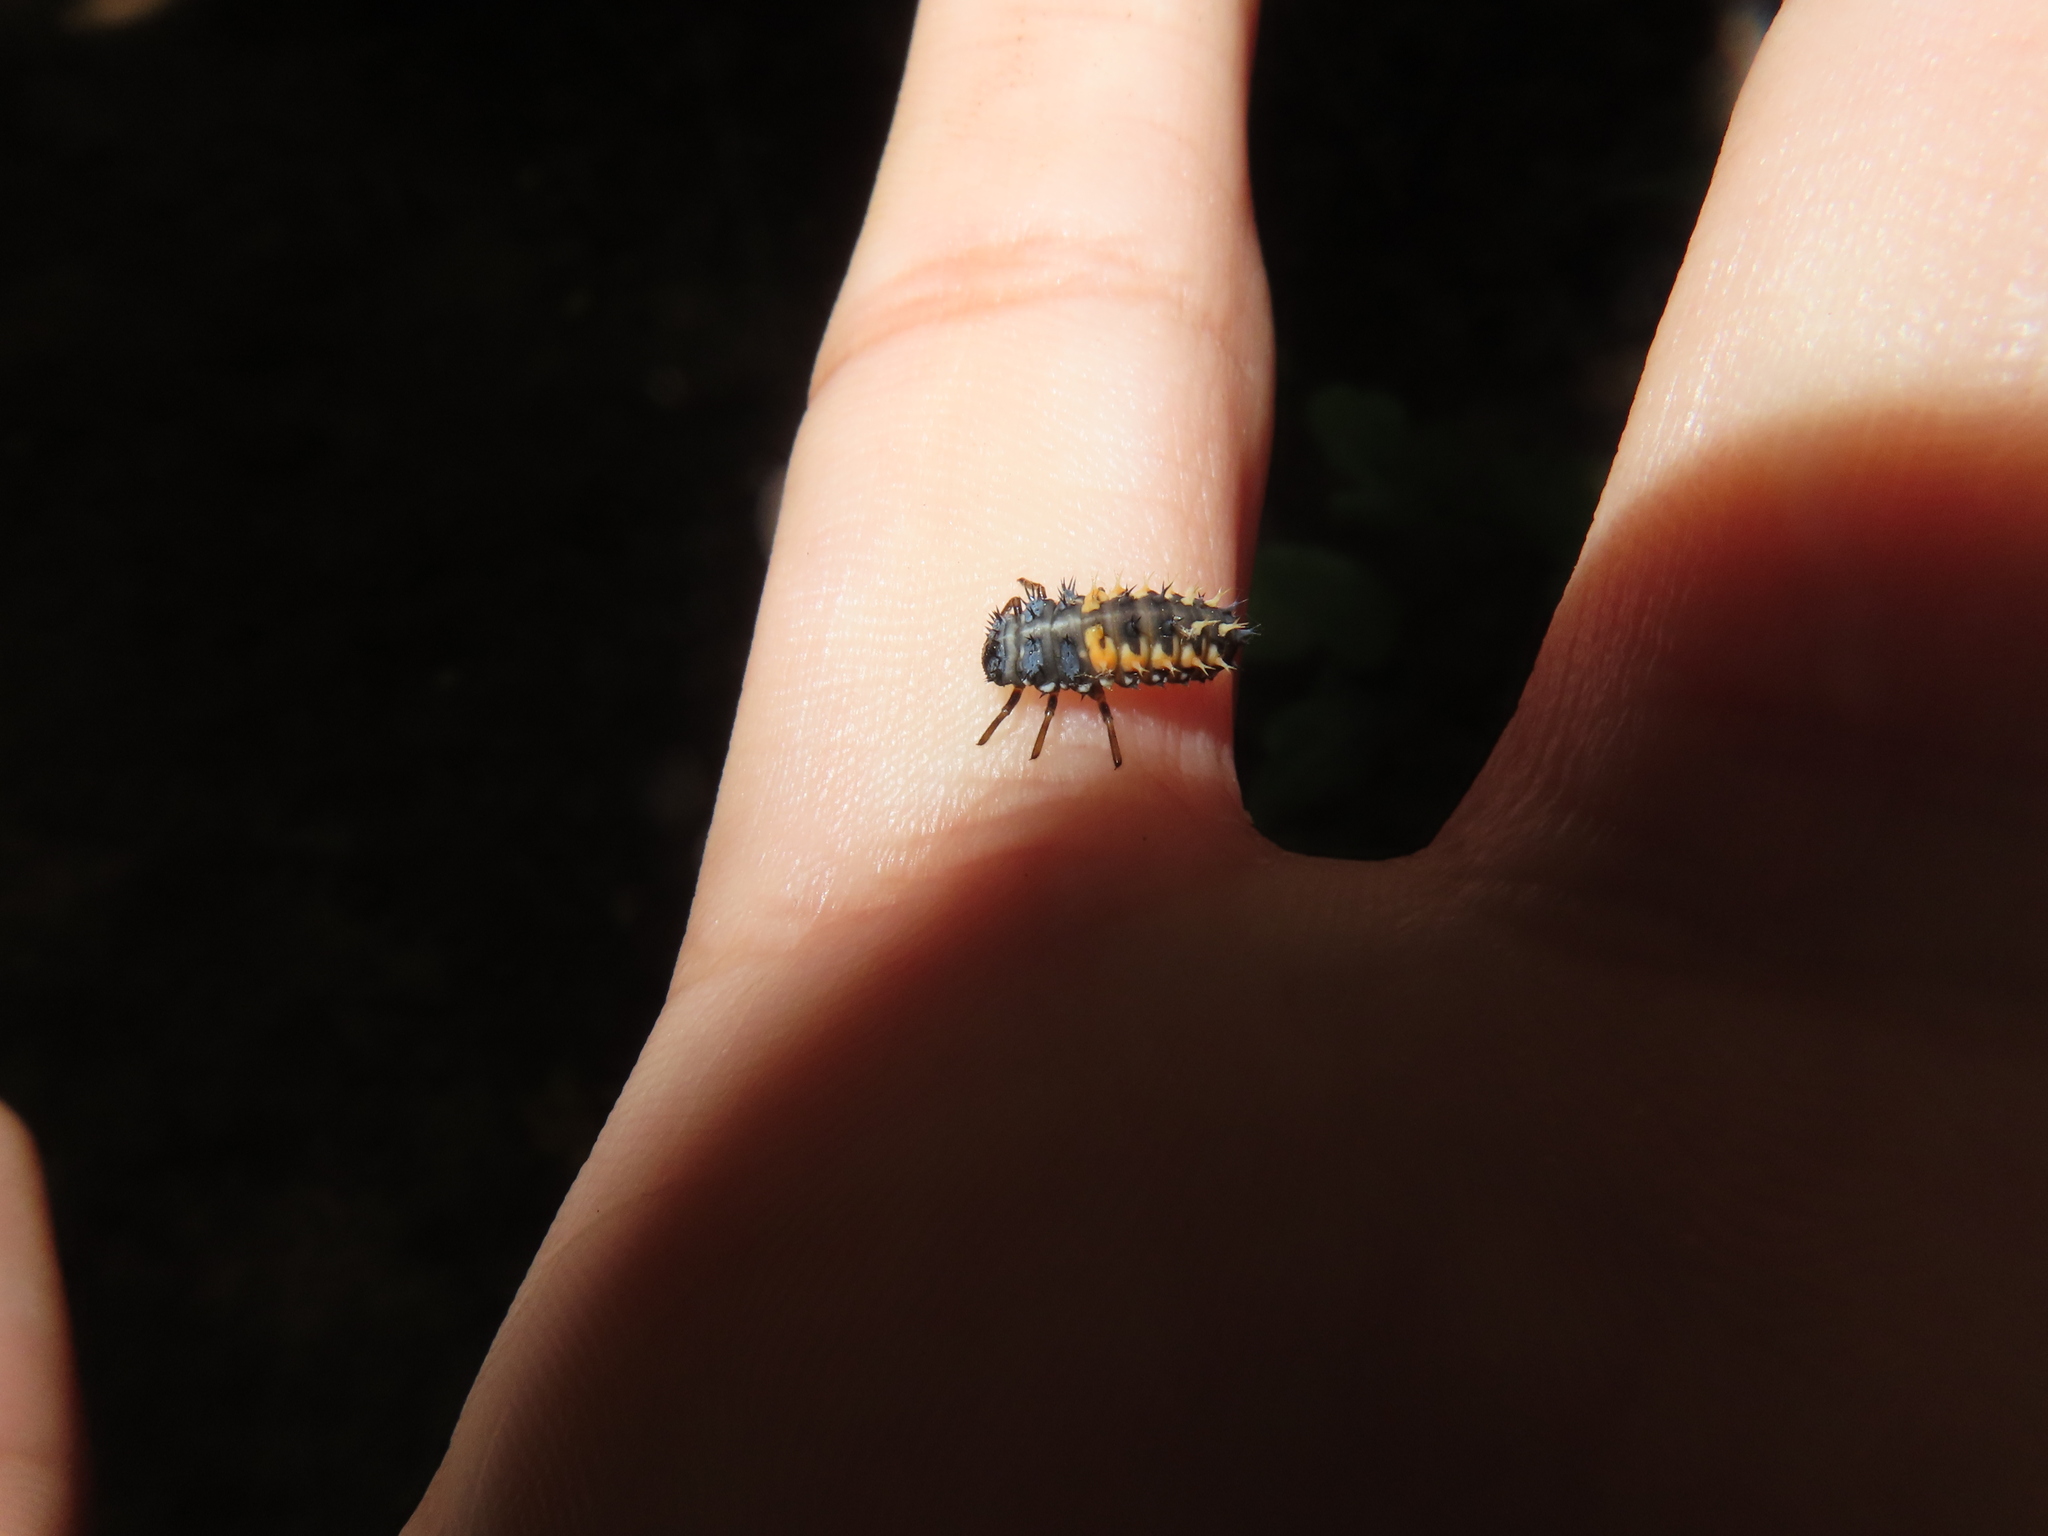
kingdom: Animalia
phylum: Arthropoda
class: Insecta
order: Coleoptera
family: Coccinellidae
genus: Harmonia
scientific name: Harmonia axyridis
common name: Harlequin ladybird
